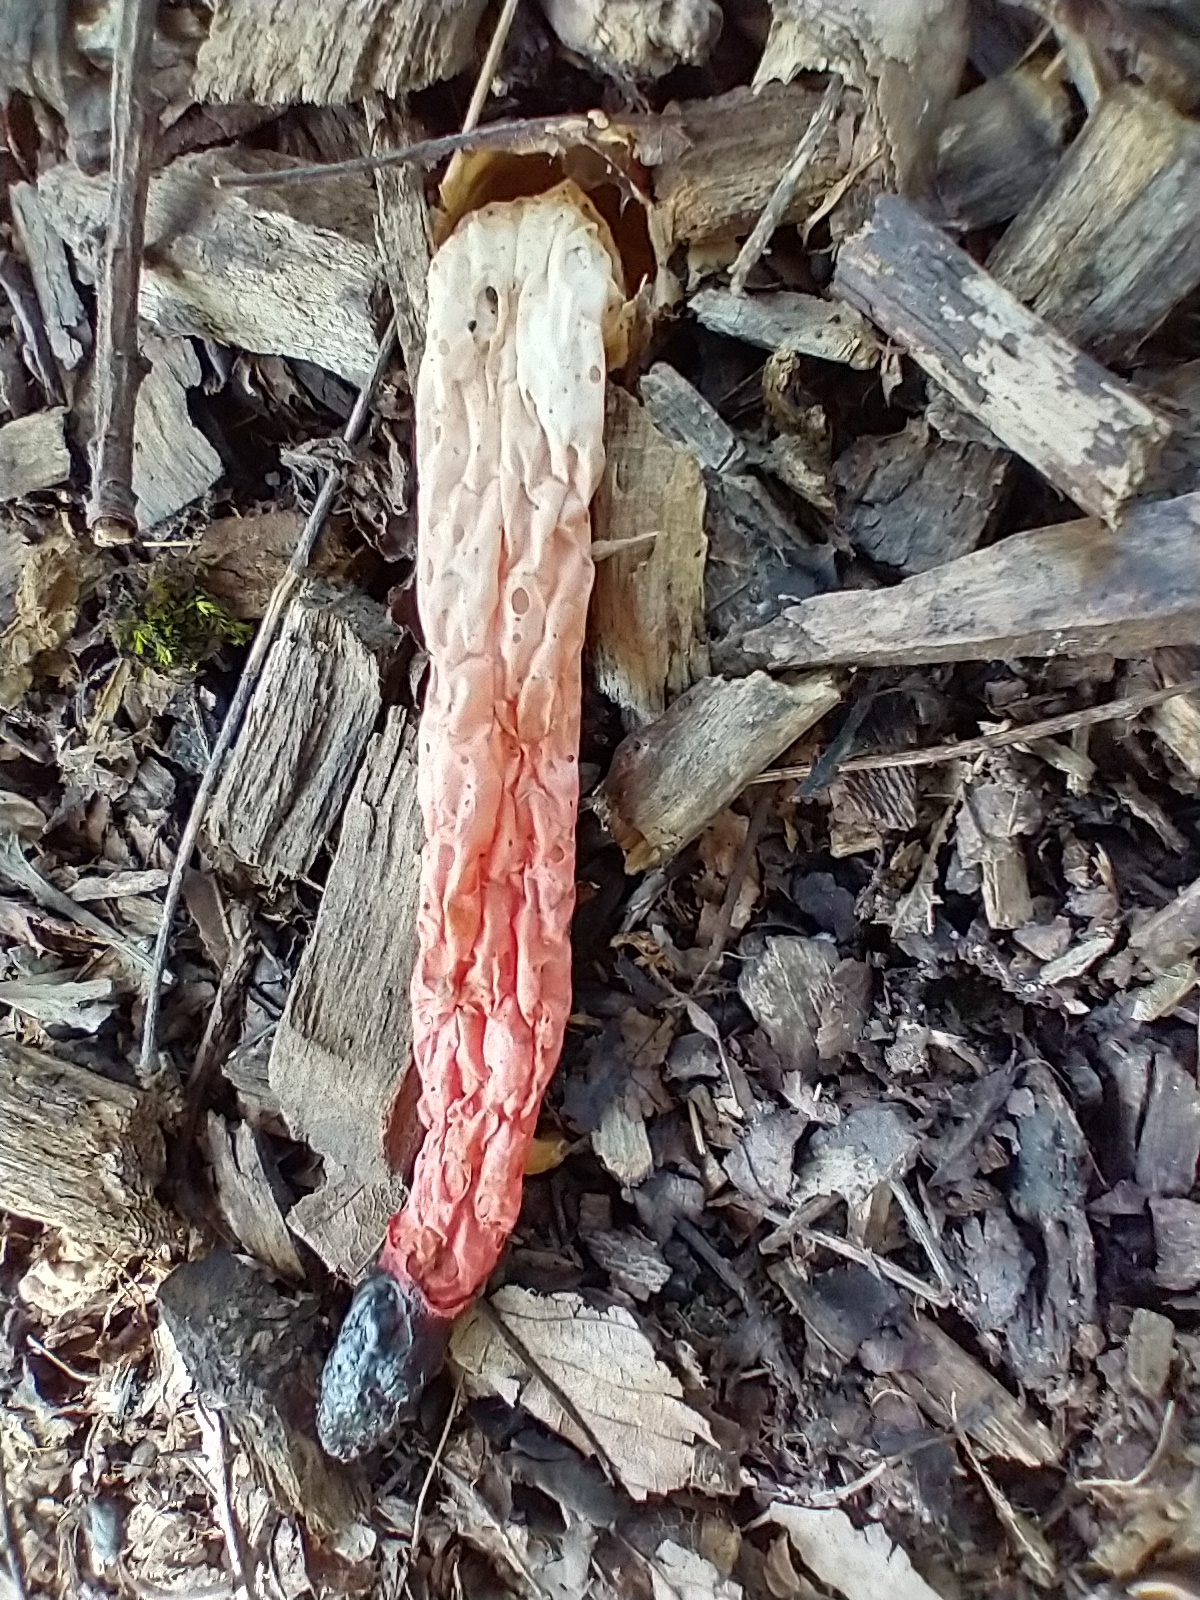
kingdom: Fungi
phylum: Basidiomycota
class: Agaricomycetes
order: Phallales
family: Phallaceae
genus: Phallus
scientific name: Phallus rugulosus
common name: Wrinkly stinkhorn
